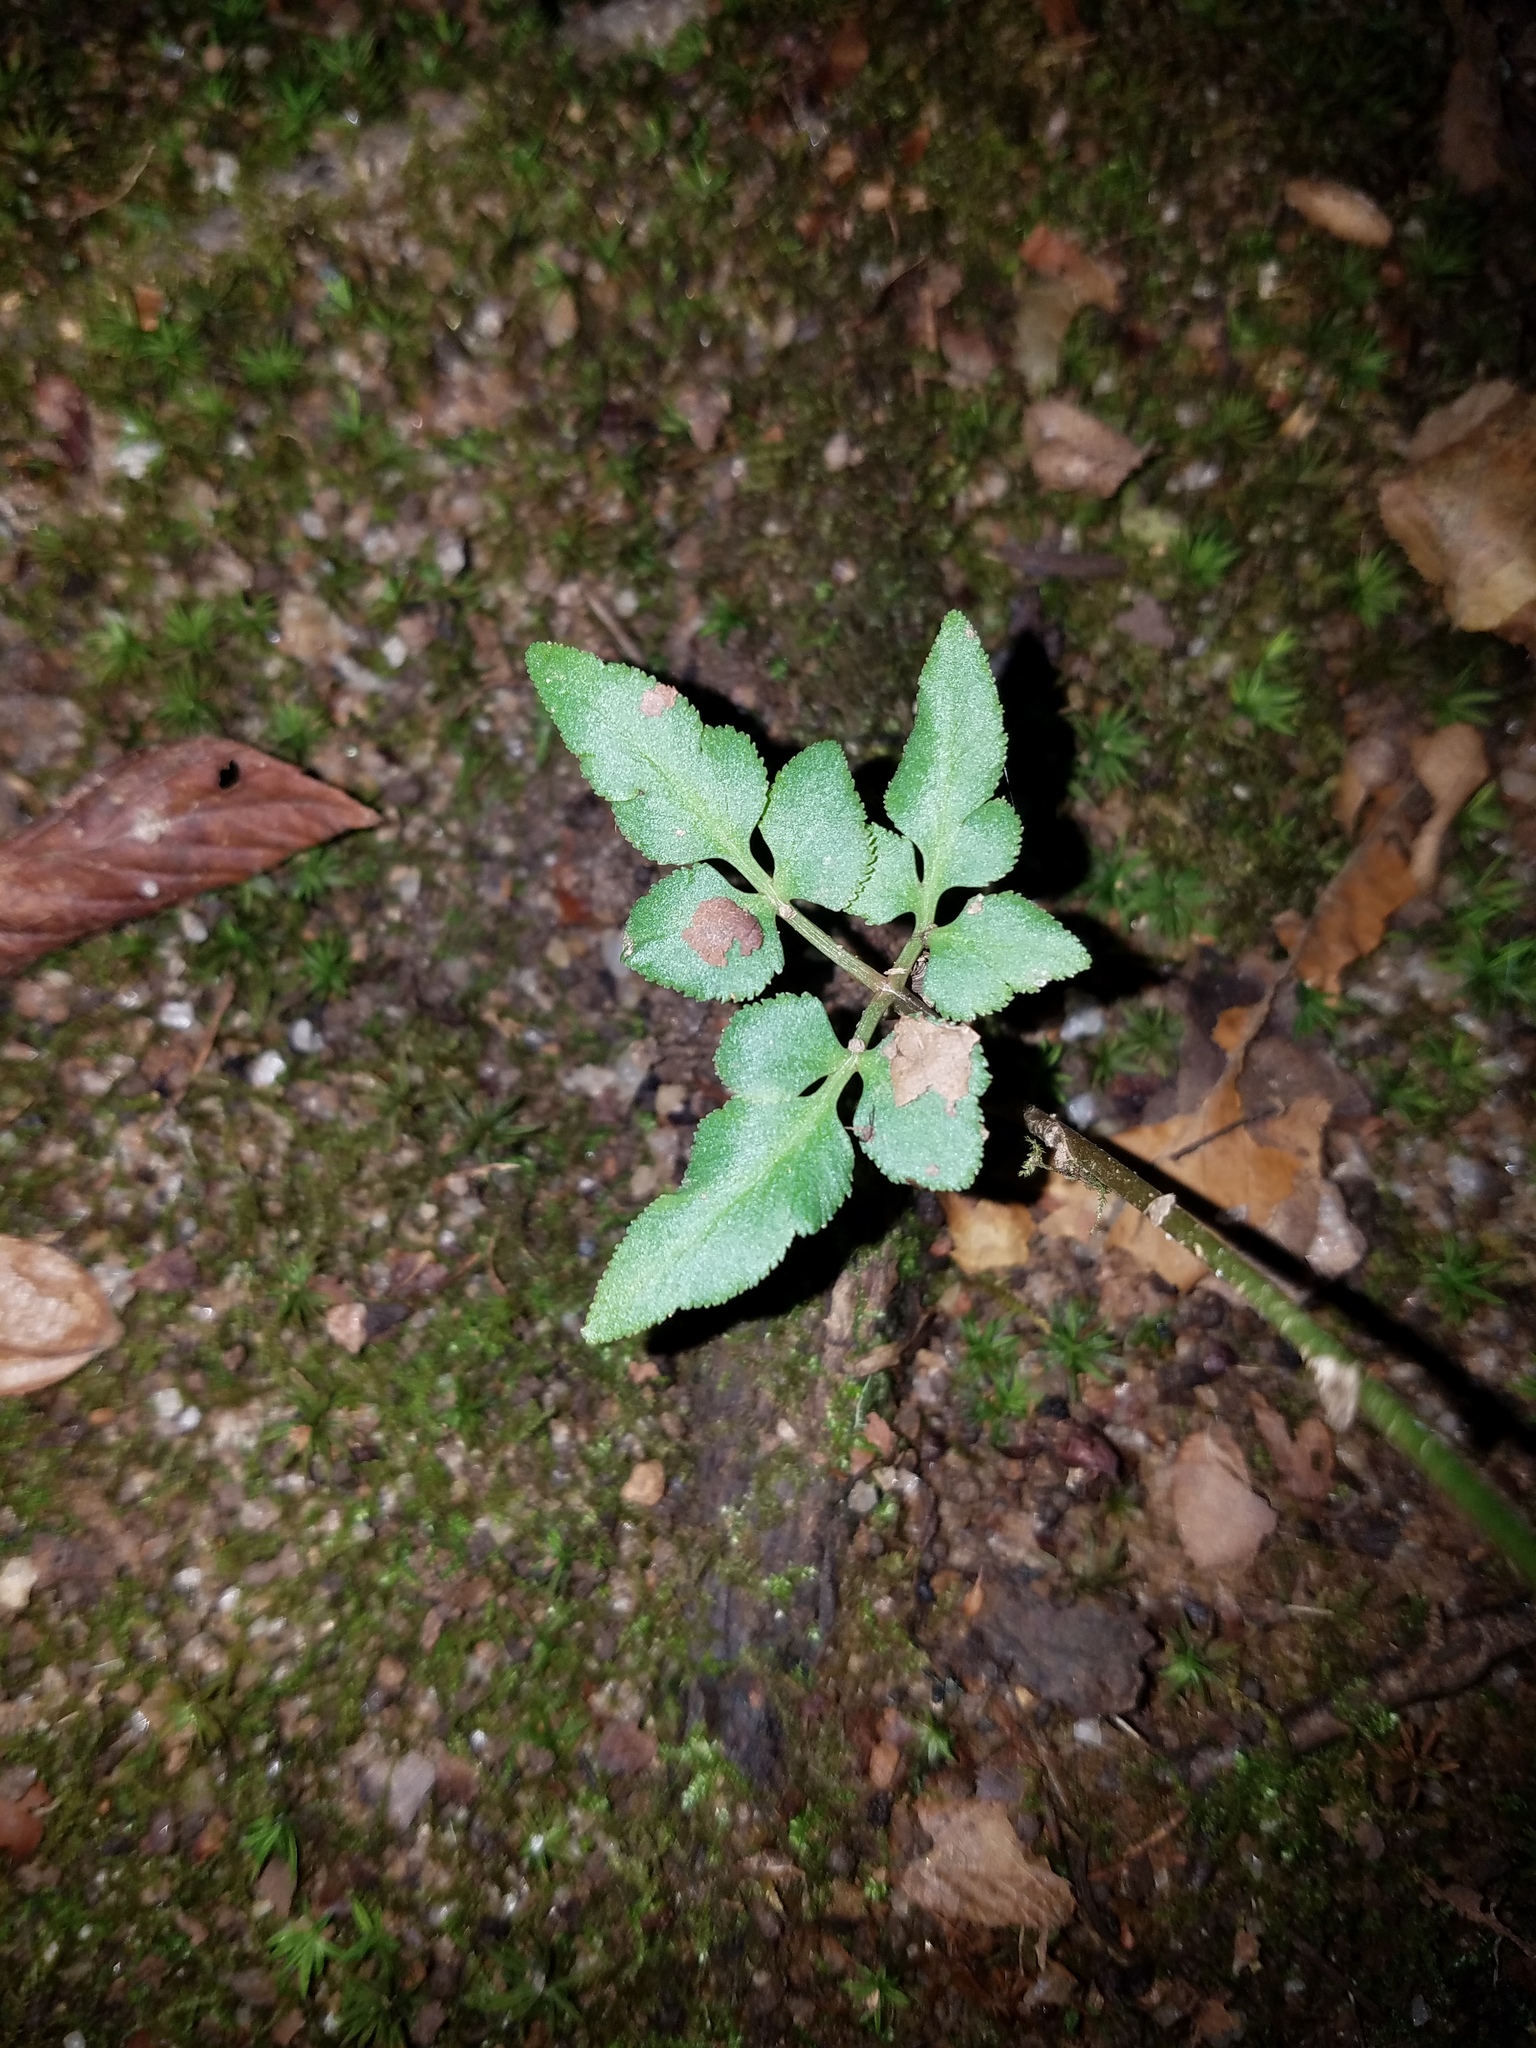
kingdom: Plantae
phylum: Tracheophyta
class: Polypodiopsida
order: Ophioglossales
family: Ophioglossaceae
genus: Sceptridium
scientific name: Sceptridium biternatum
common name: Sparse-lobed grapefern
